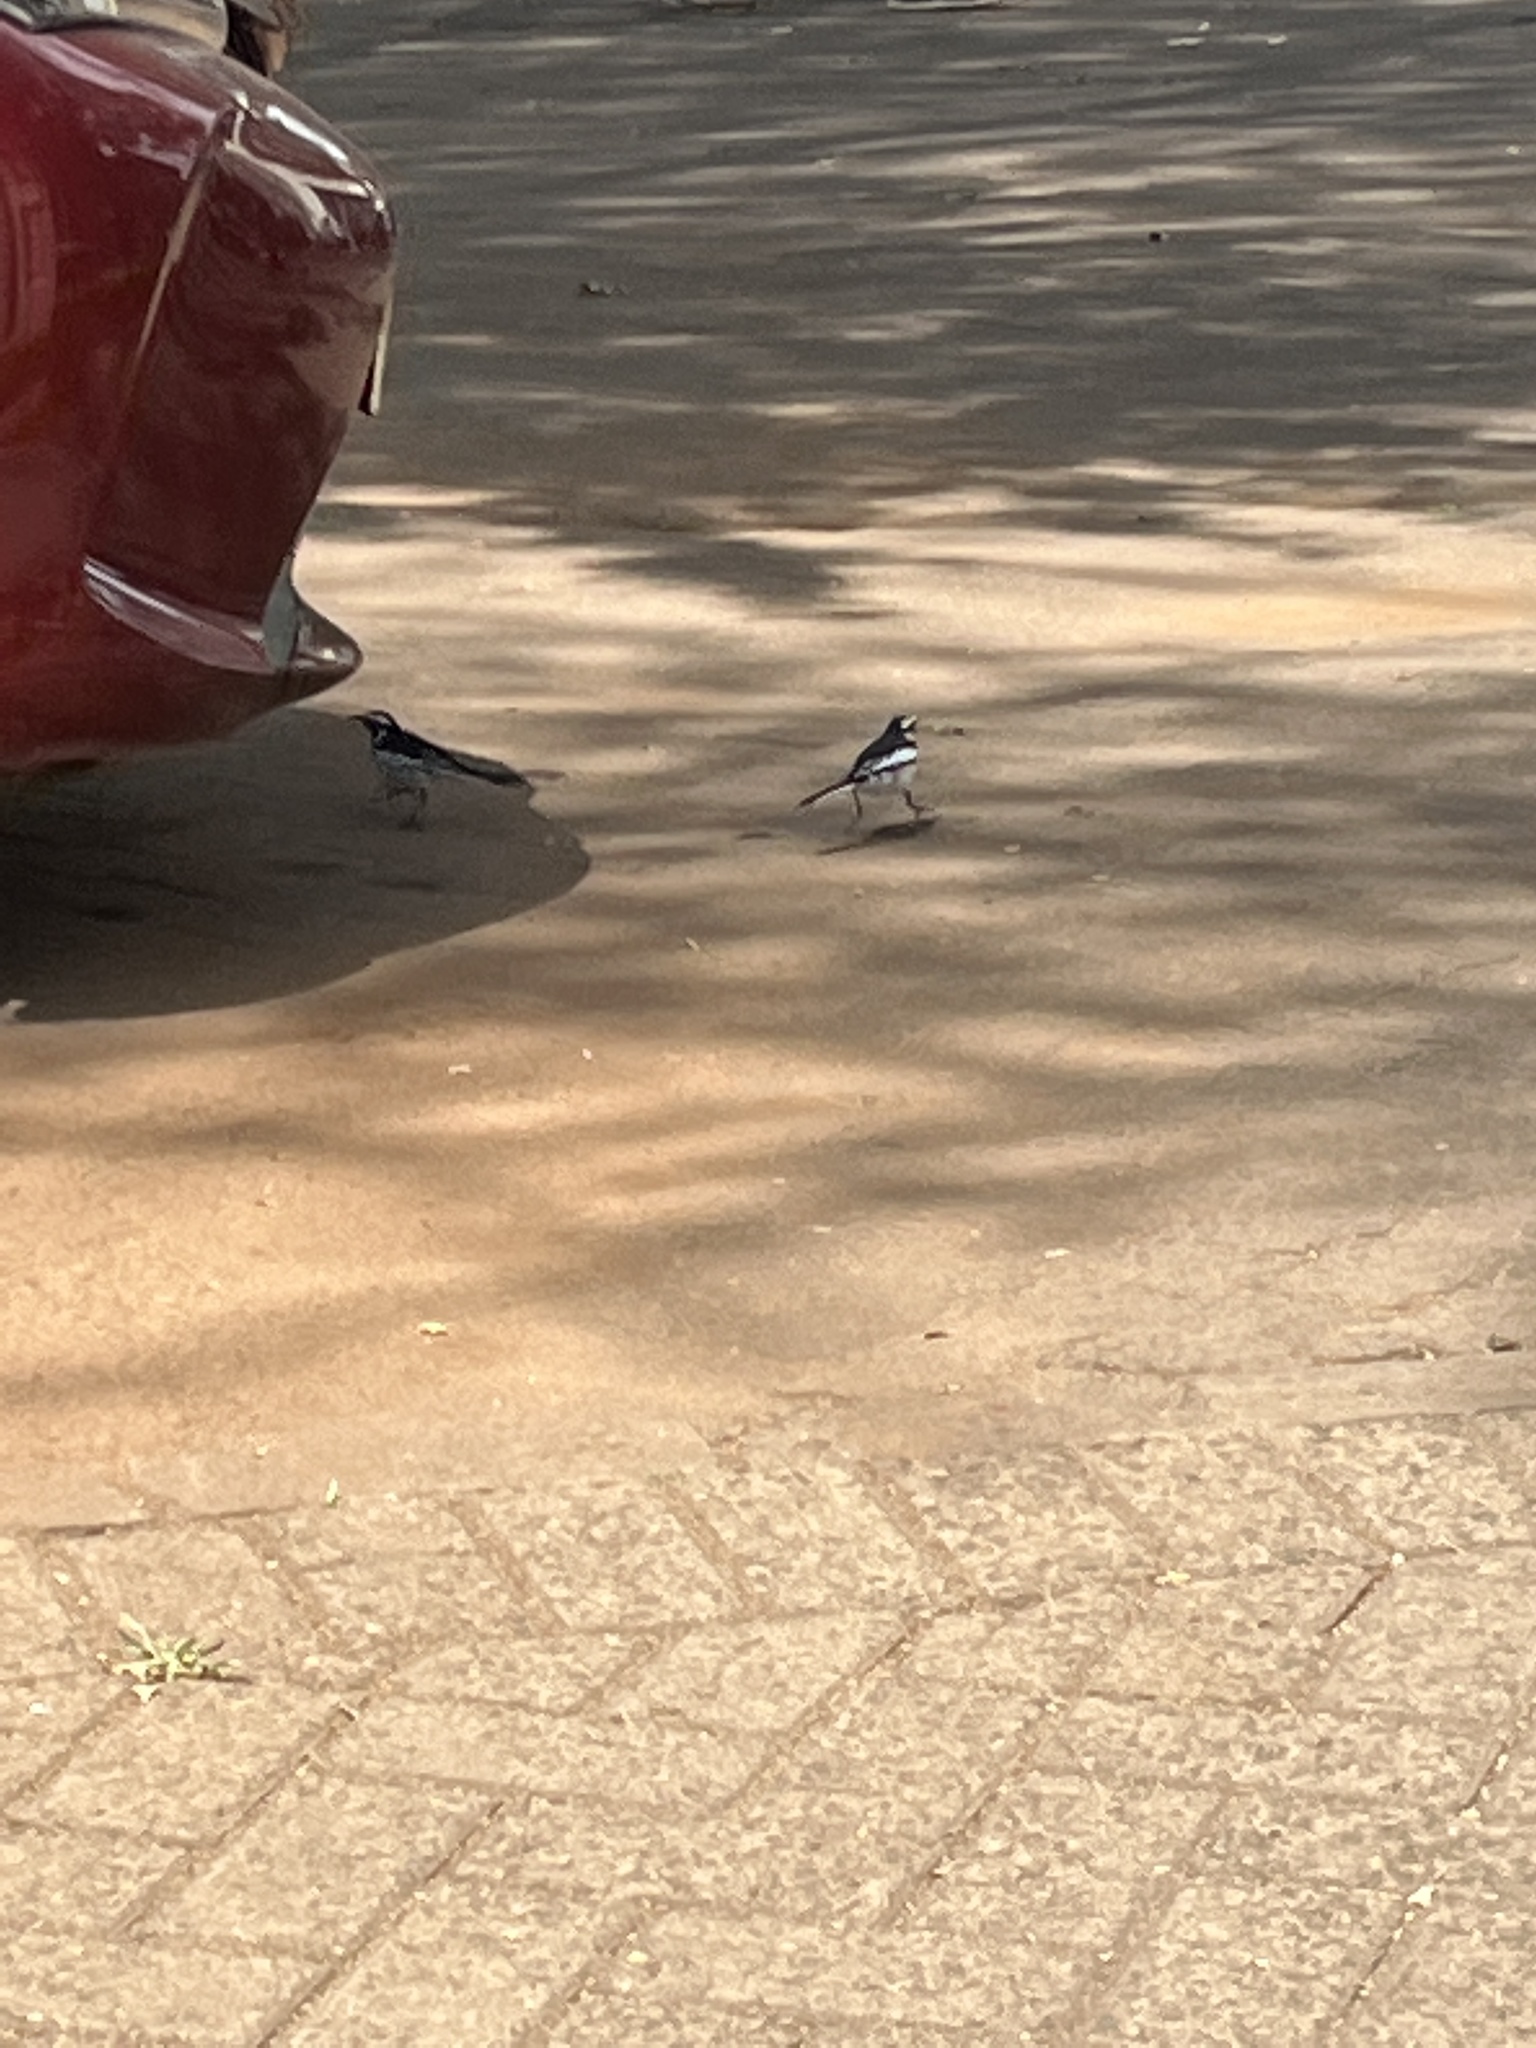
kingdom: Animalia
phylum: Chordata
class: Aves
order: Passeriformes
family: Motacillidae
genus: Motacilla
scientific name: Motacilla aguimp
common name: African pied wagtail
